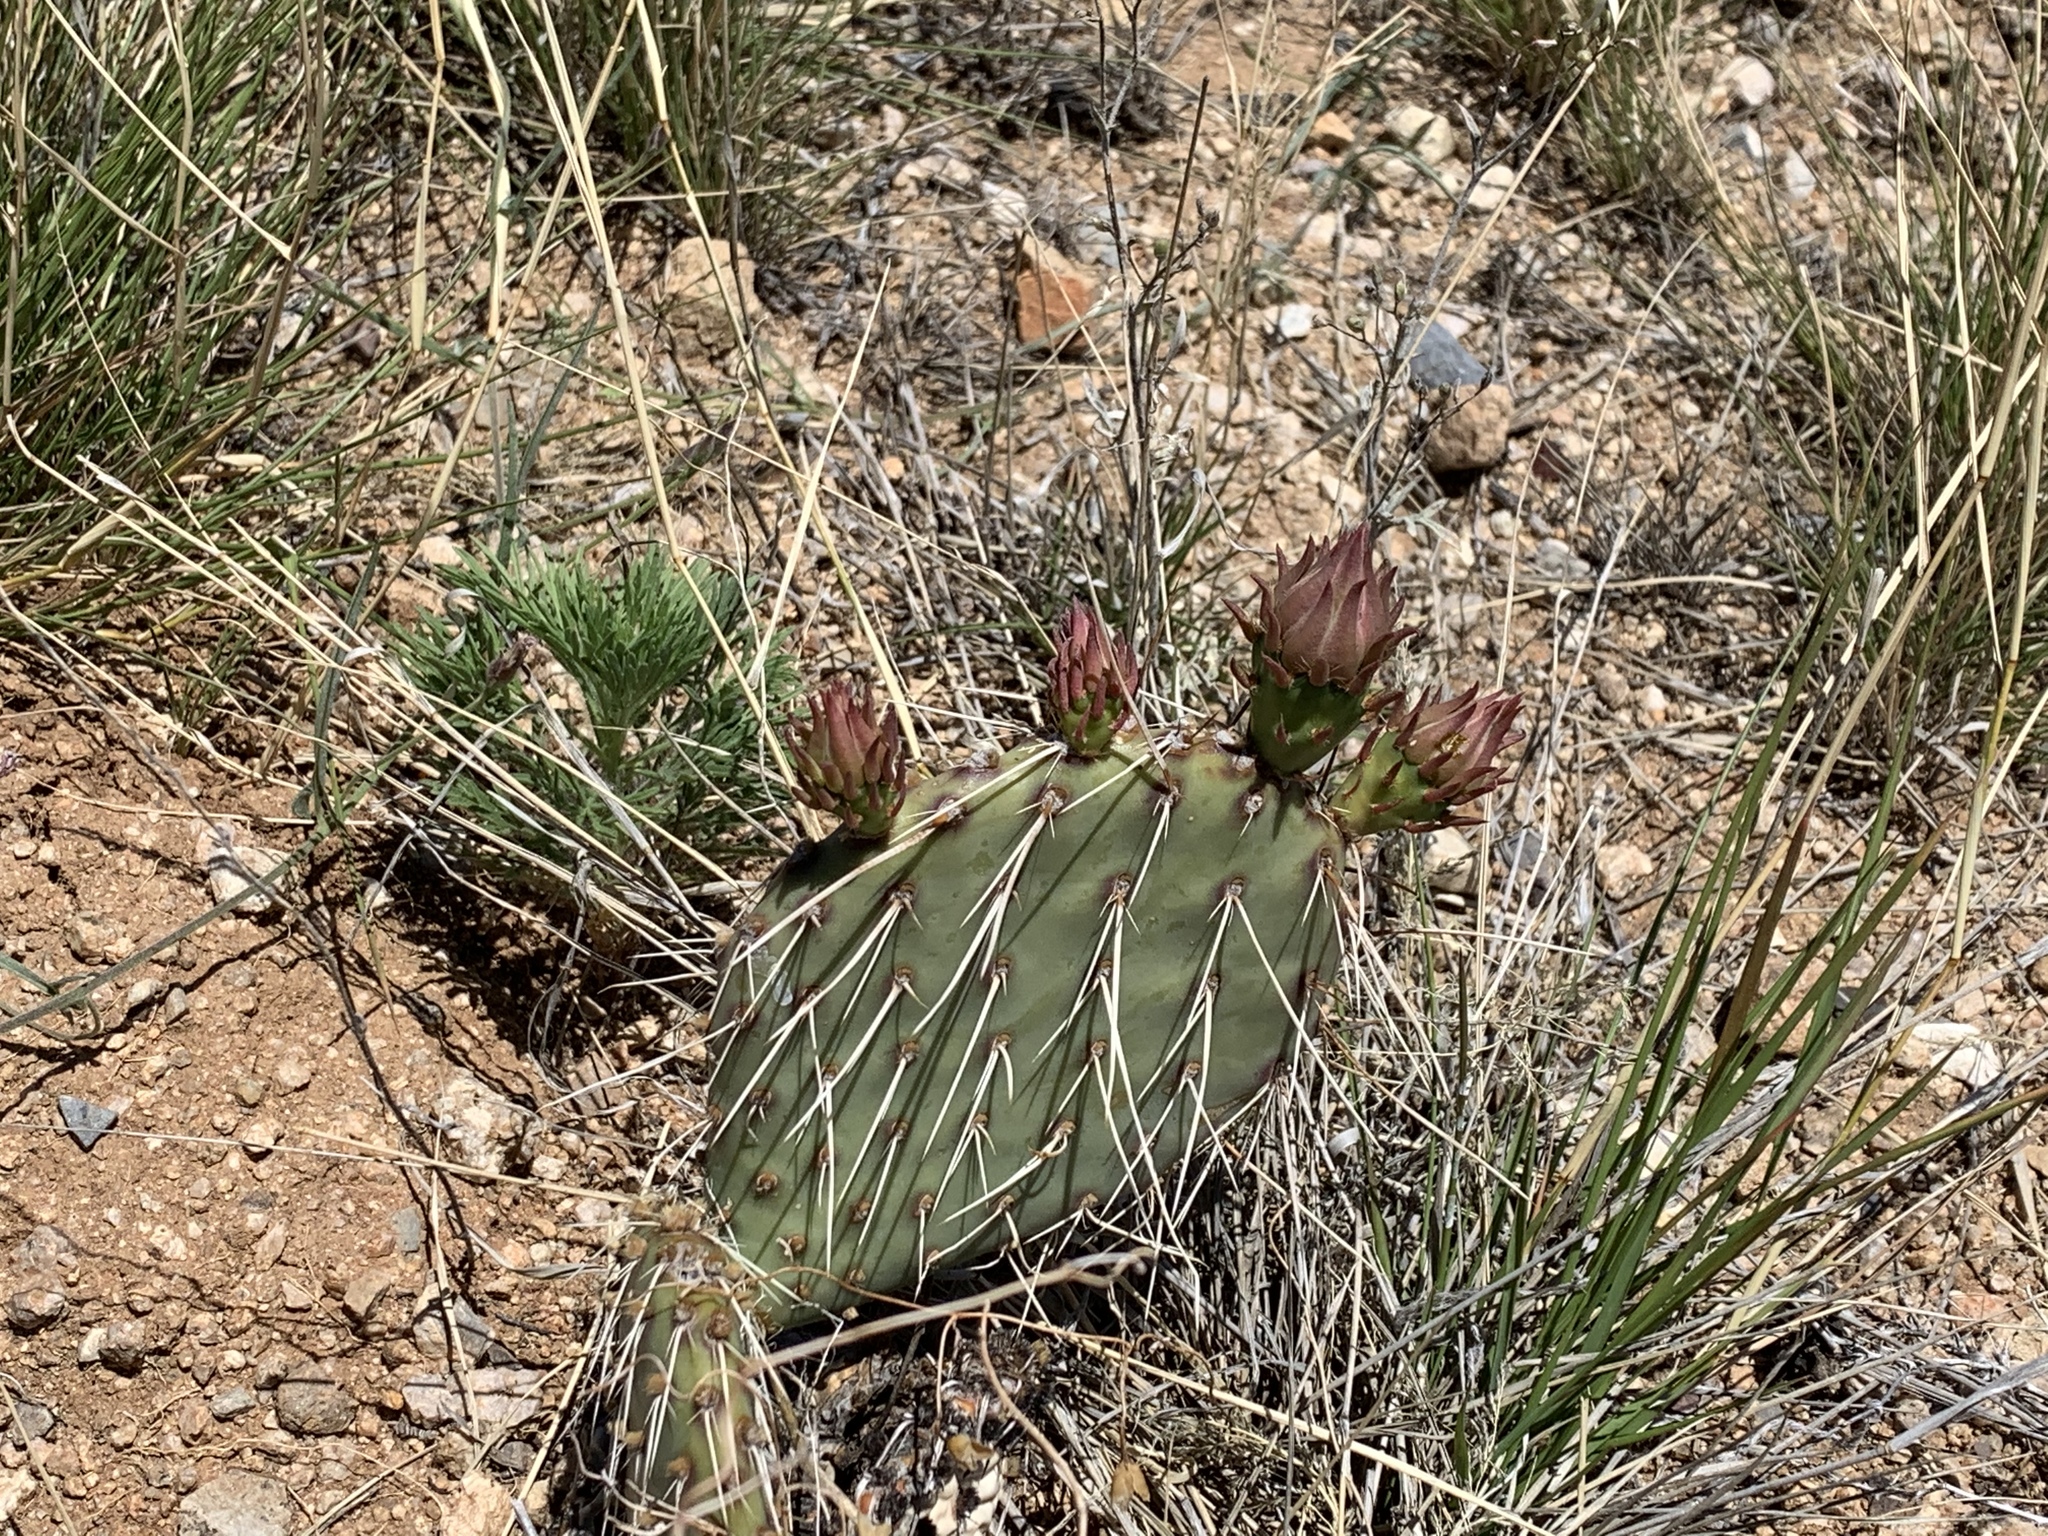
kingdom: Plantae
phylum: Tracheophyta
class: Magnoliopsida
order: Caryophyllales
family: Cactaceae
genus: Opuntia
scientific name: Opuntia macrorhiza
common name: Grassland pricklypear
